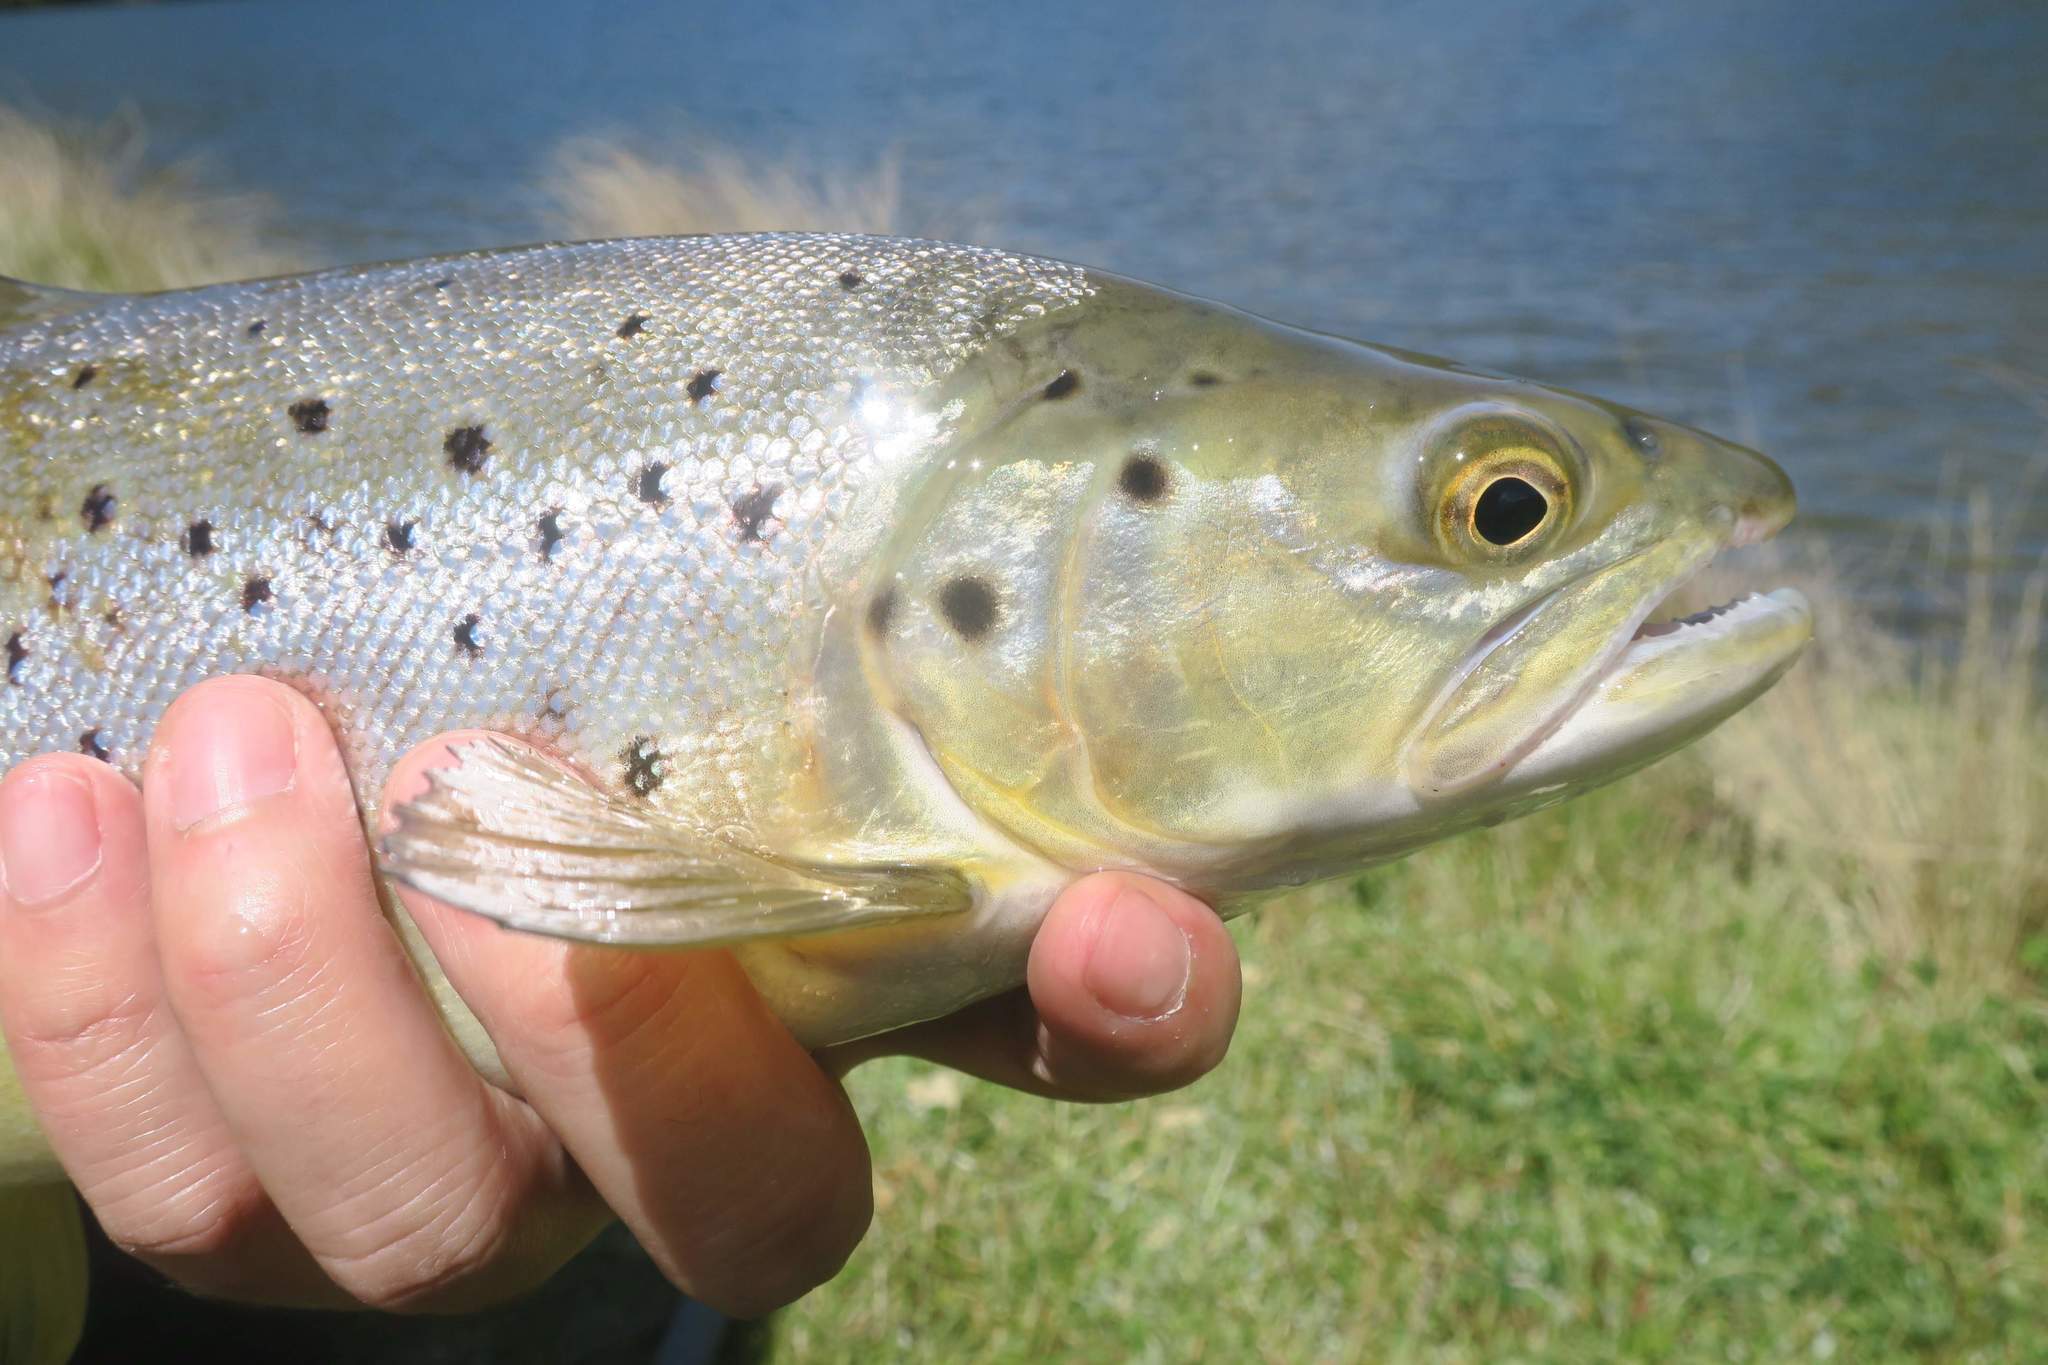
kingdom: Animalia
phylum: Chordata
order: Salmoniformes
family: Salmonidae
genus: Salmo
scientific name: Salmo trutta
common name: Brown trout
